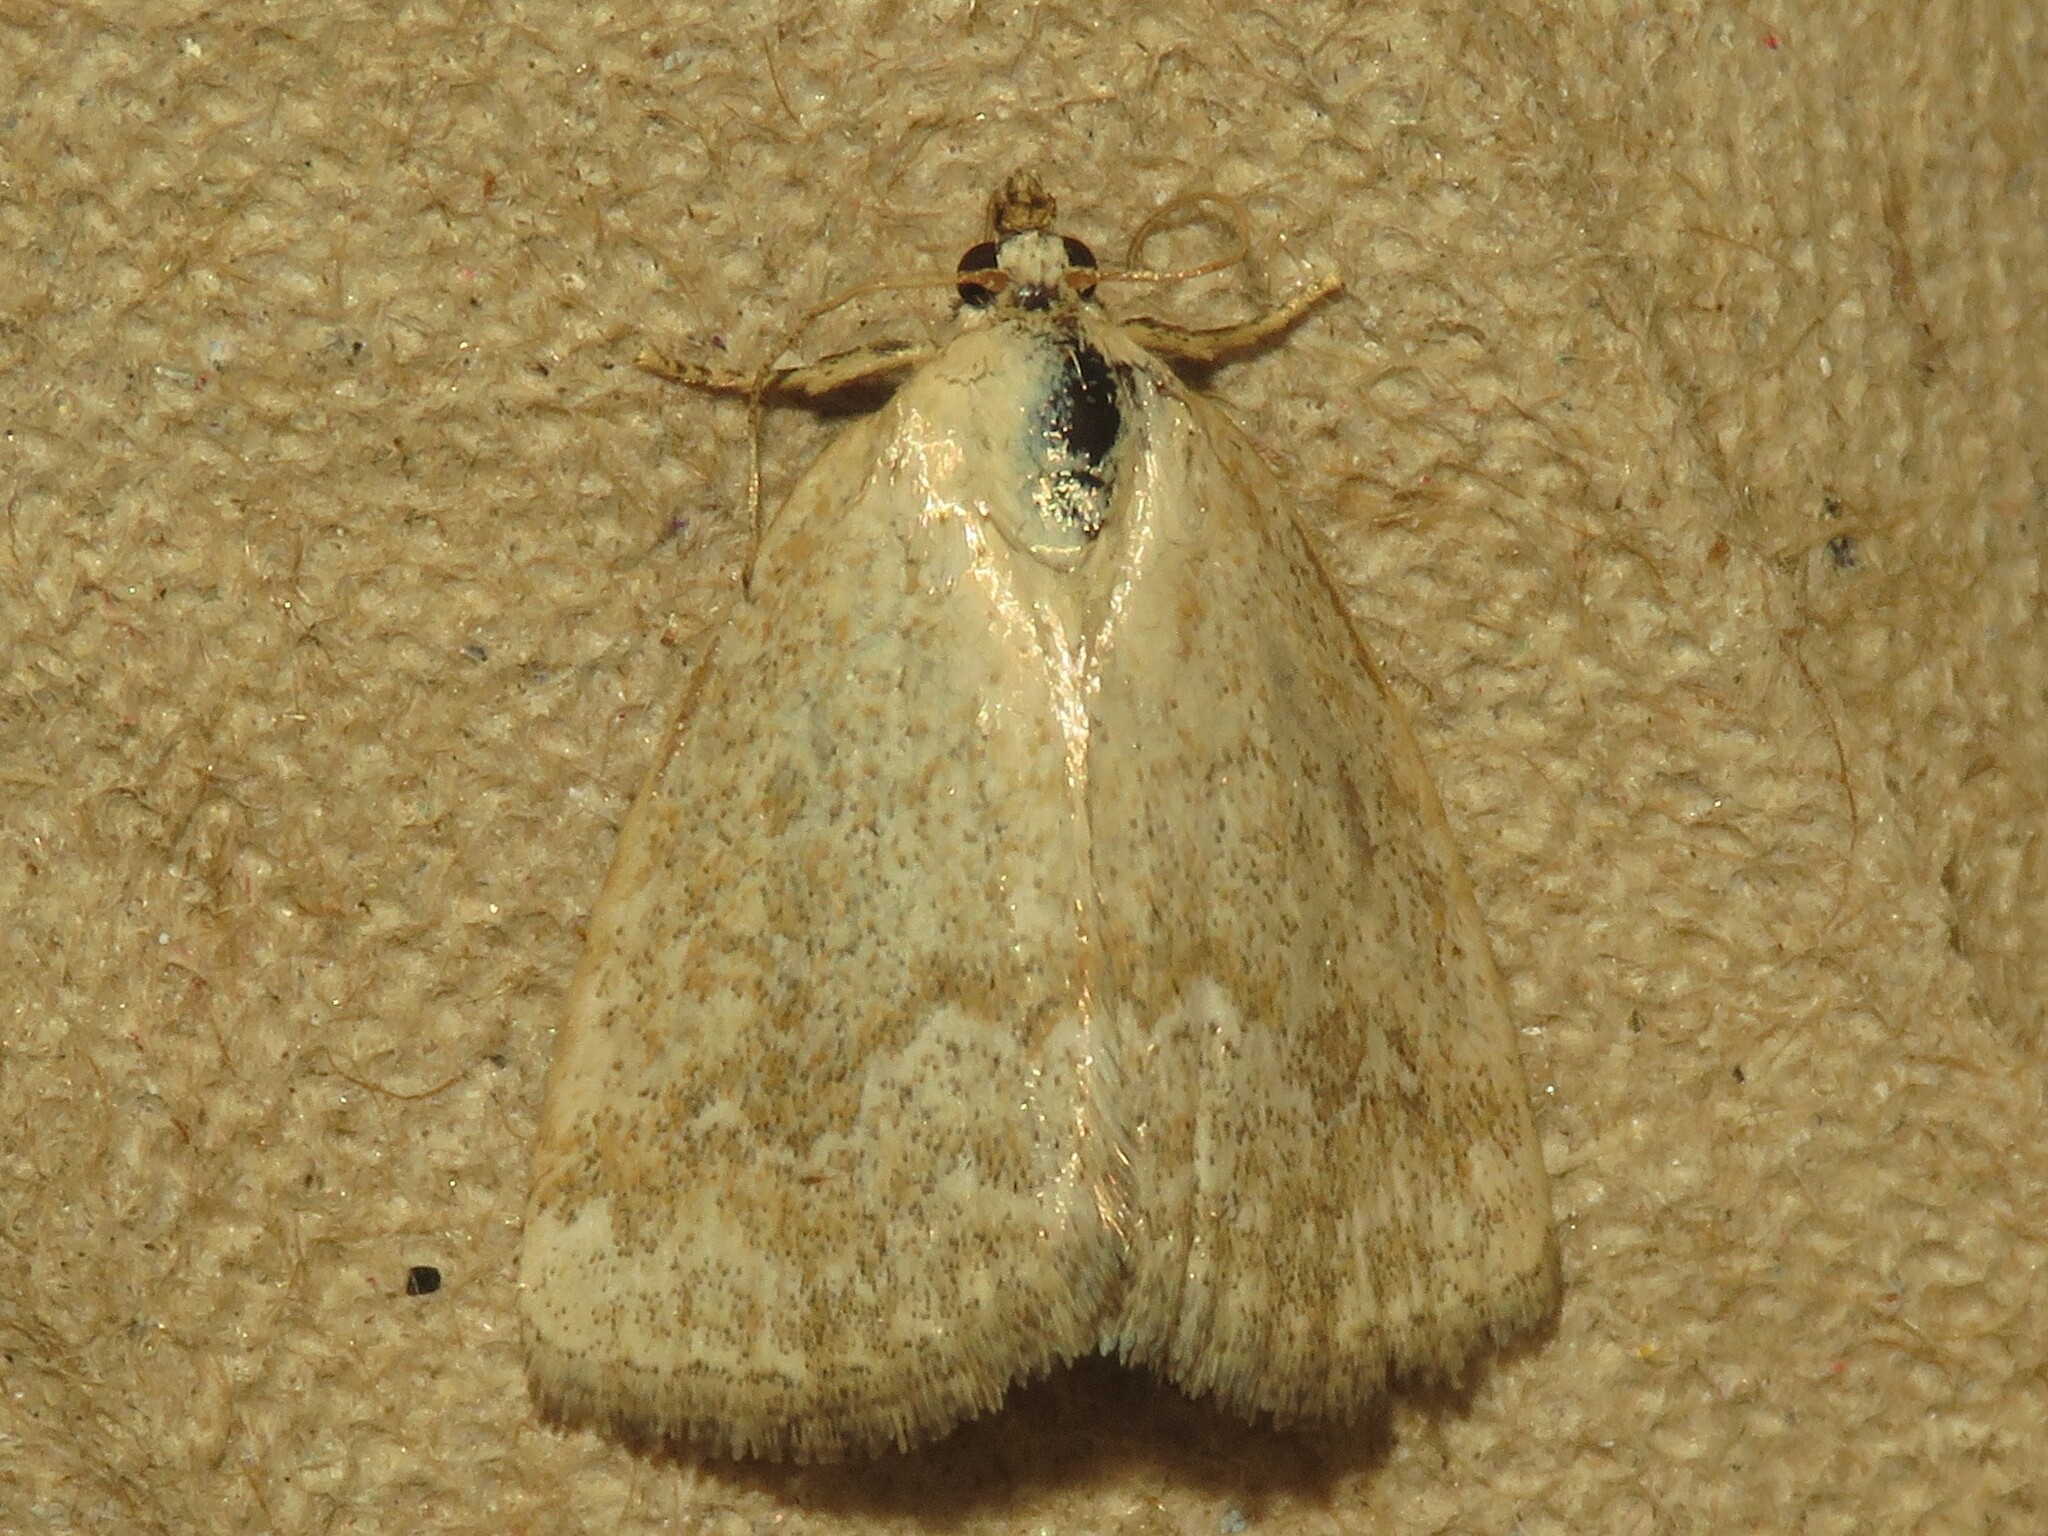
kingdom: Animalia
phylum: Arthropoda
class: Insecta
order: Lepidoptera
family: Noctuidae
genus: Protodeltote
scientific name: Protodeltote albidula
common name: Pale glyph
